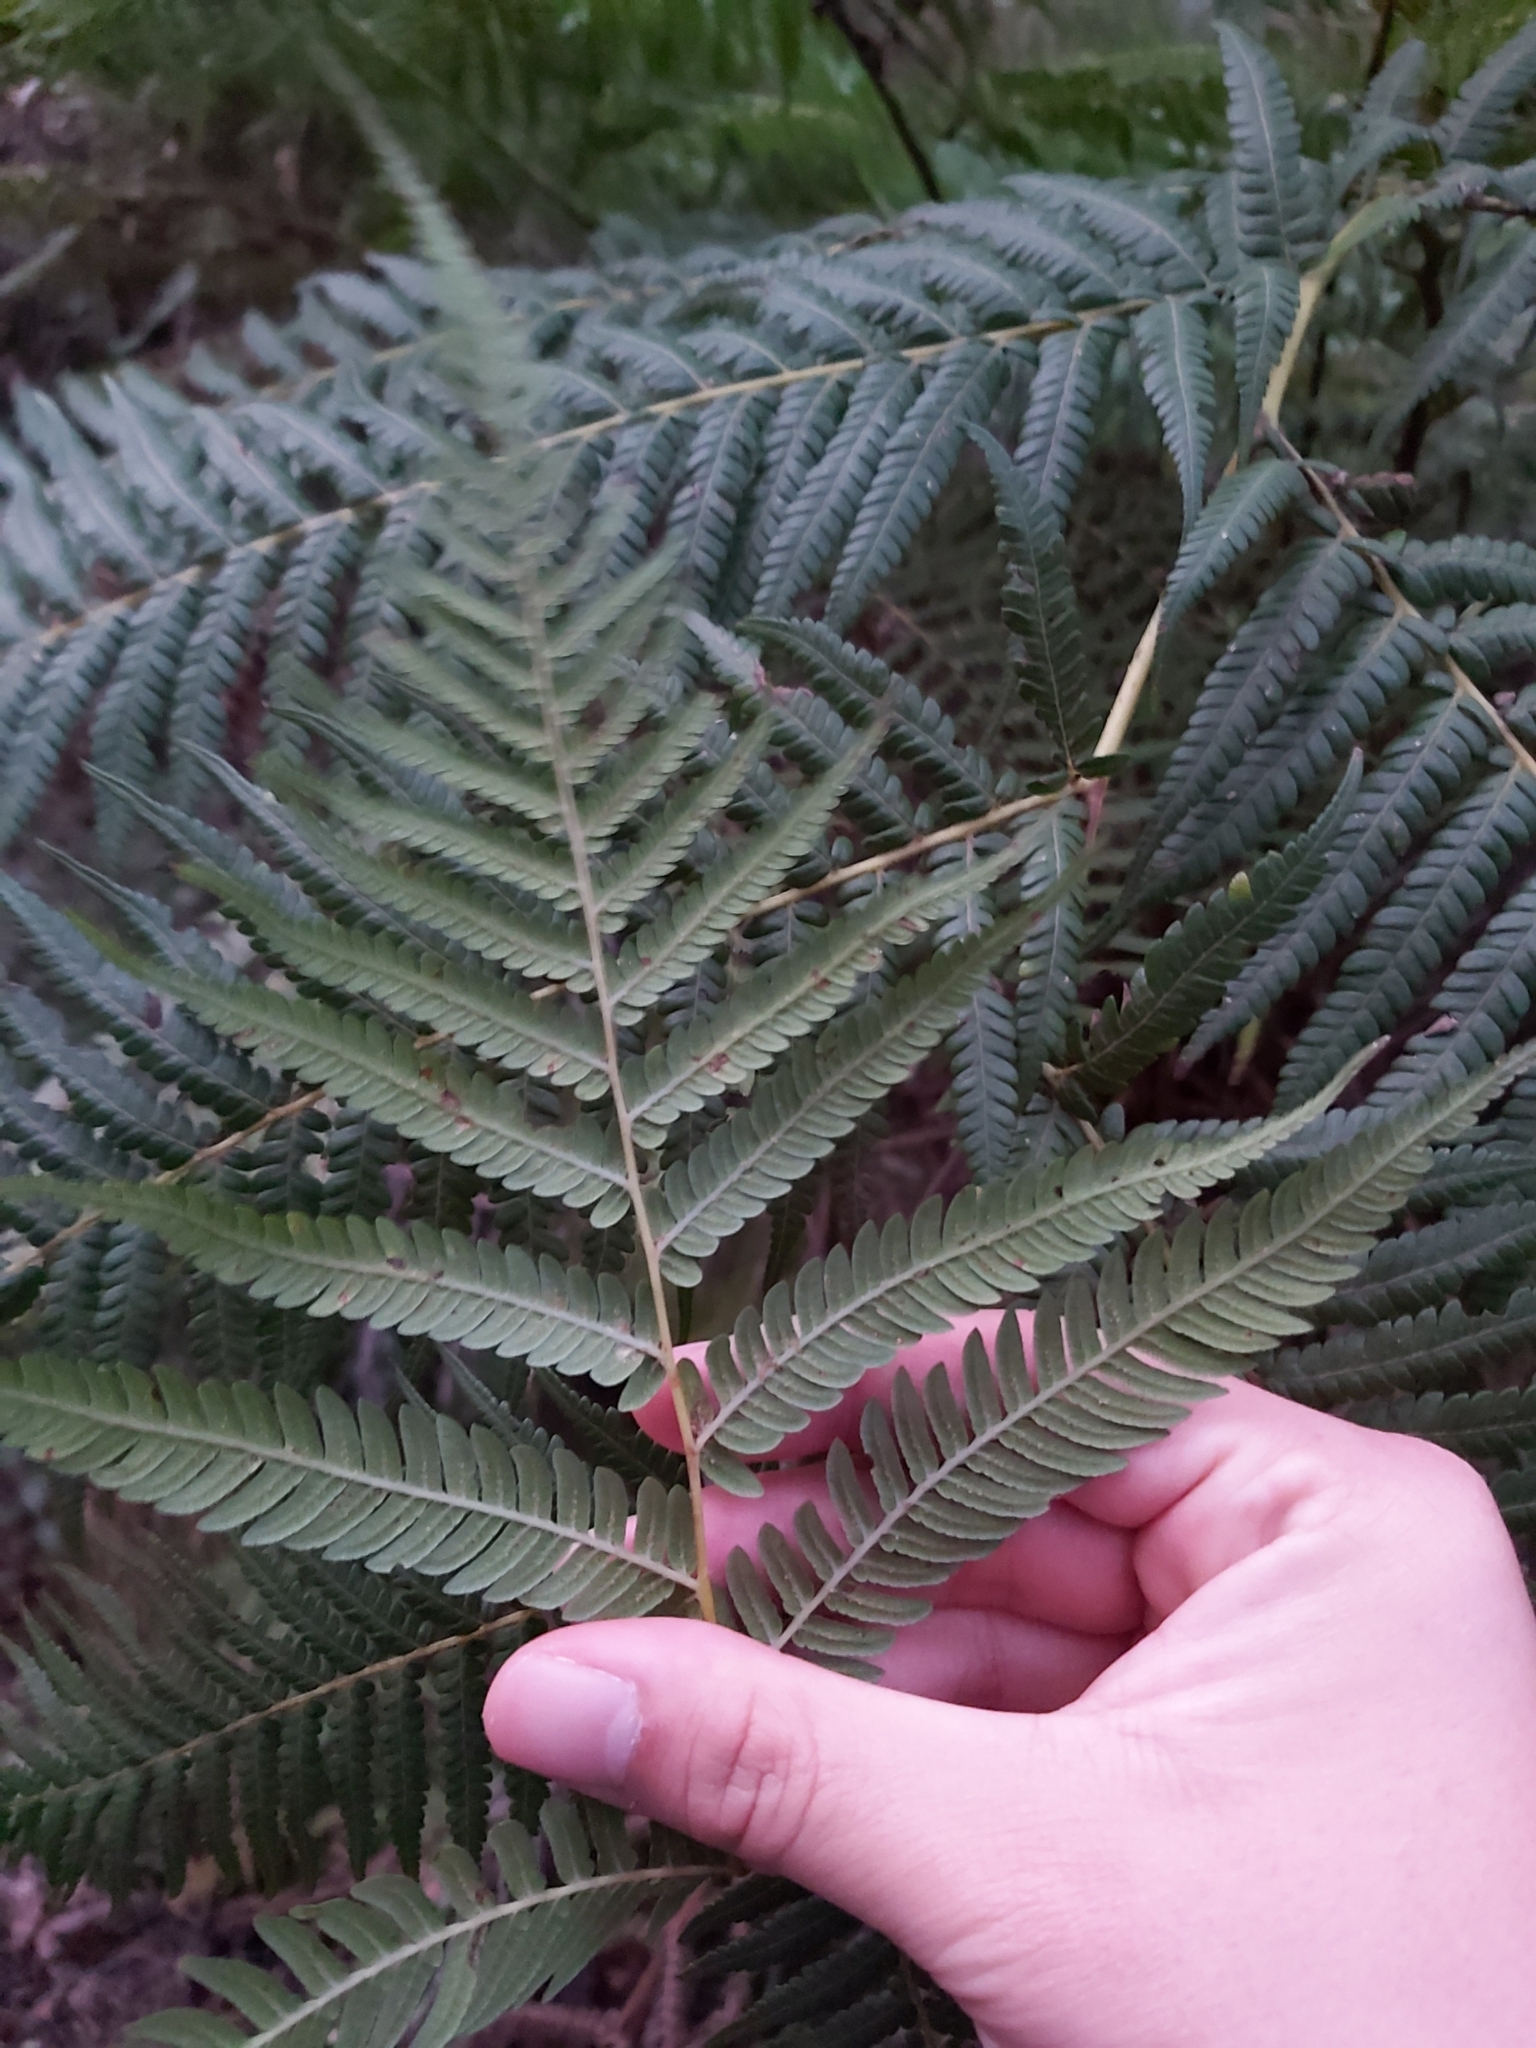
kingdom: Plantae
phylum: Tracheophyta
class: Polypodiopsida
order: Cyatheales
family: Cyatheaceae
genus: Alsophila
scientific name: Alsophila australis
